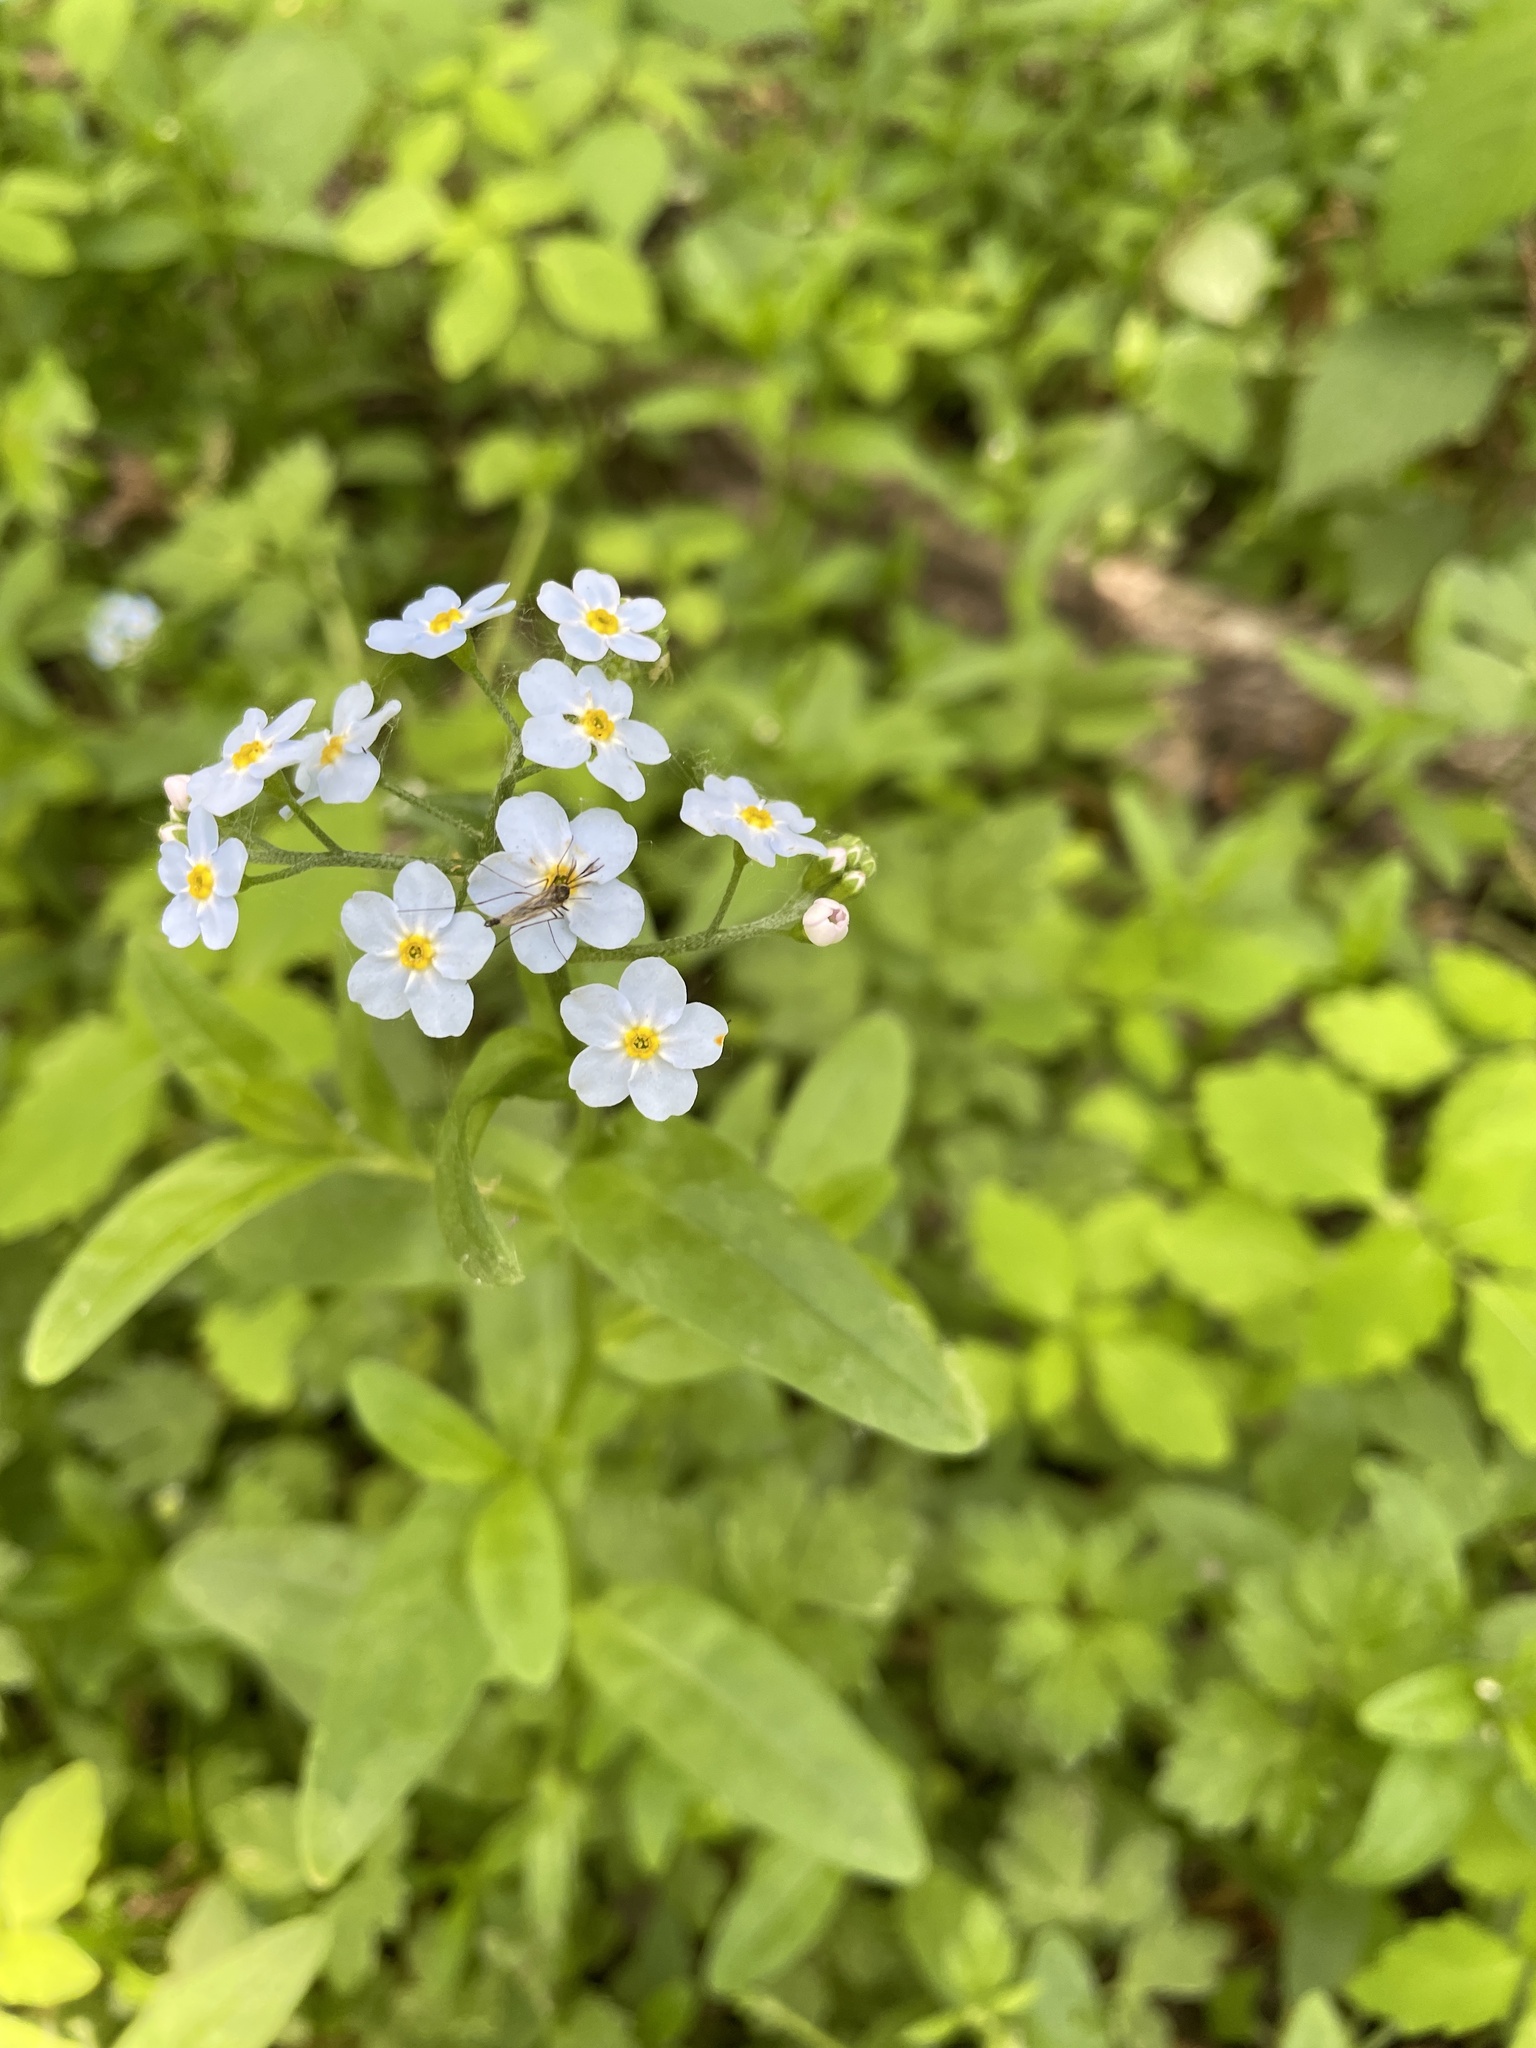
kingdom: Plantae
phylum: Tracheophyta
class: Magnoliopsida
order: Boraginales
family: Boraginaceae
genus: Myosotis
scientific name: Myosotis scorpioides
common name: Water forget-me-not
